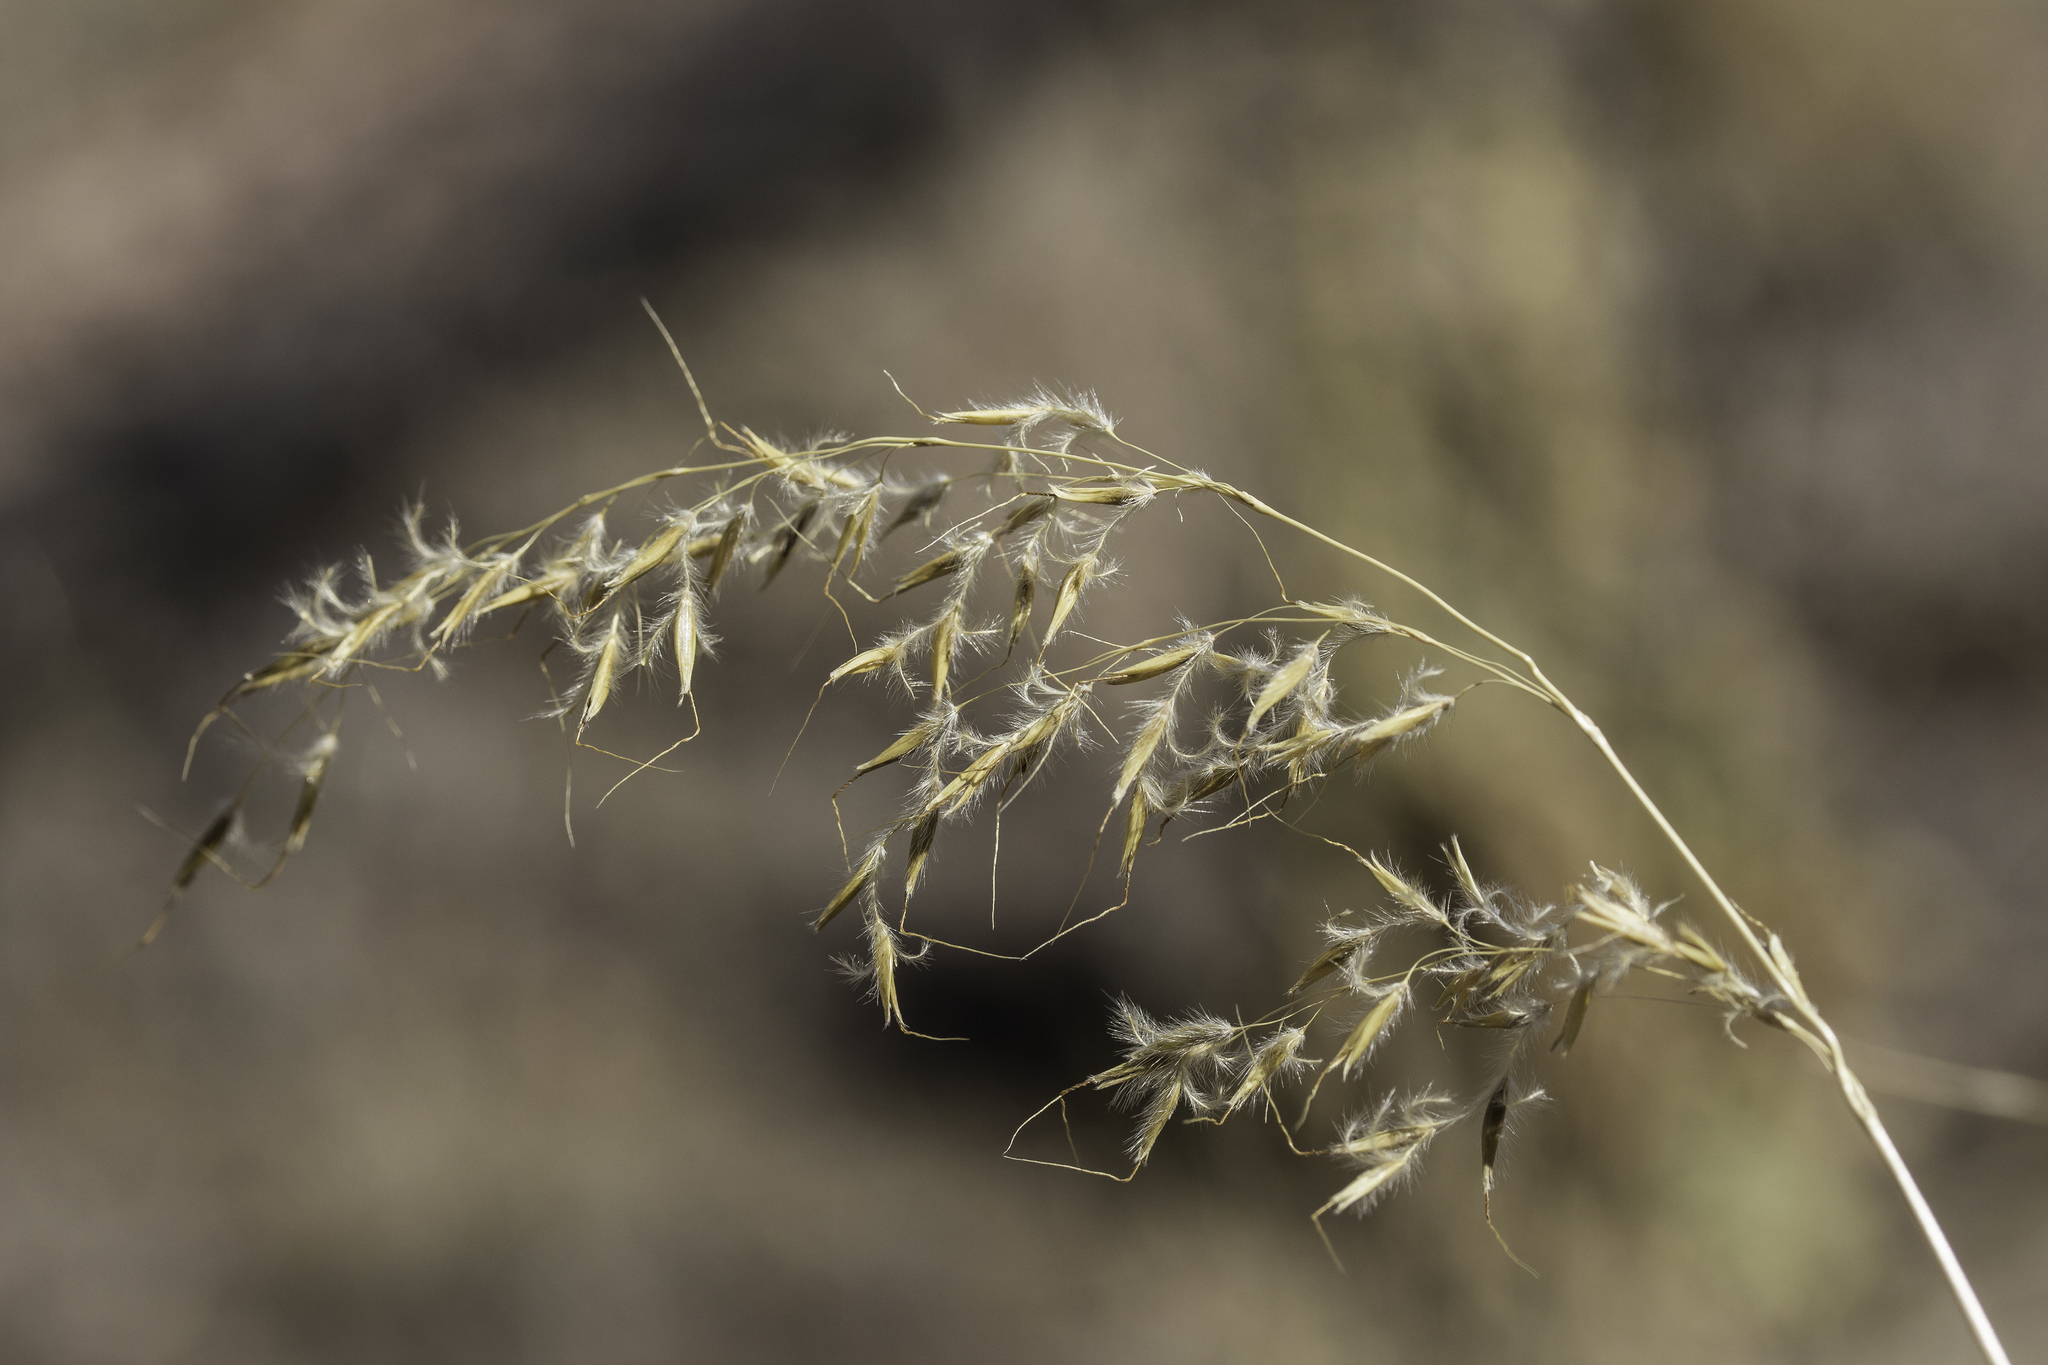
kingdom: Plantae
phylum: Tracheophyta
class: Liliopsida
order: Poales
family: Poaceae
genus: Sorghastrum
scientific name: Sorghastrum nutans
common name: Indian grass
